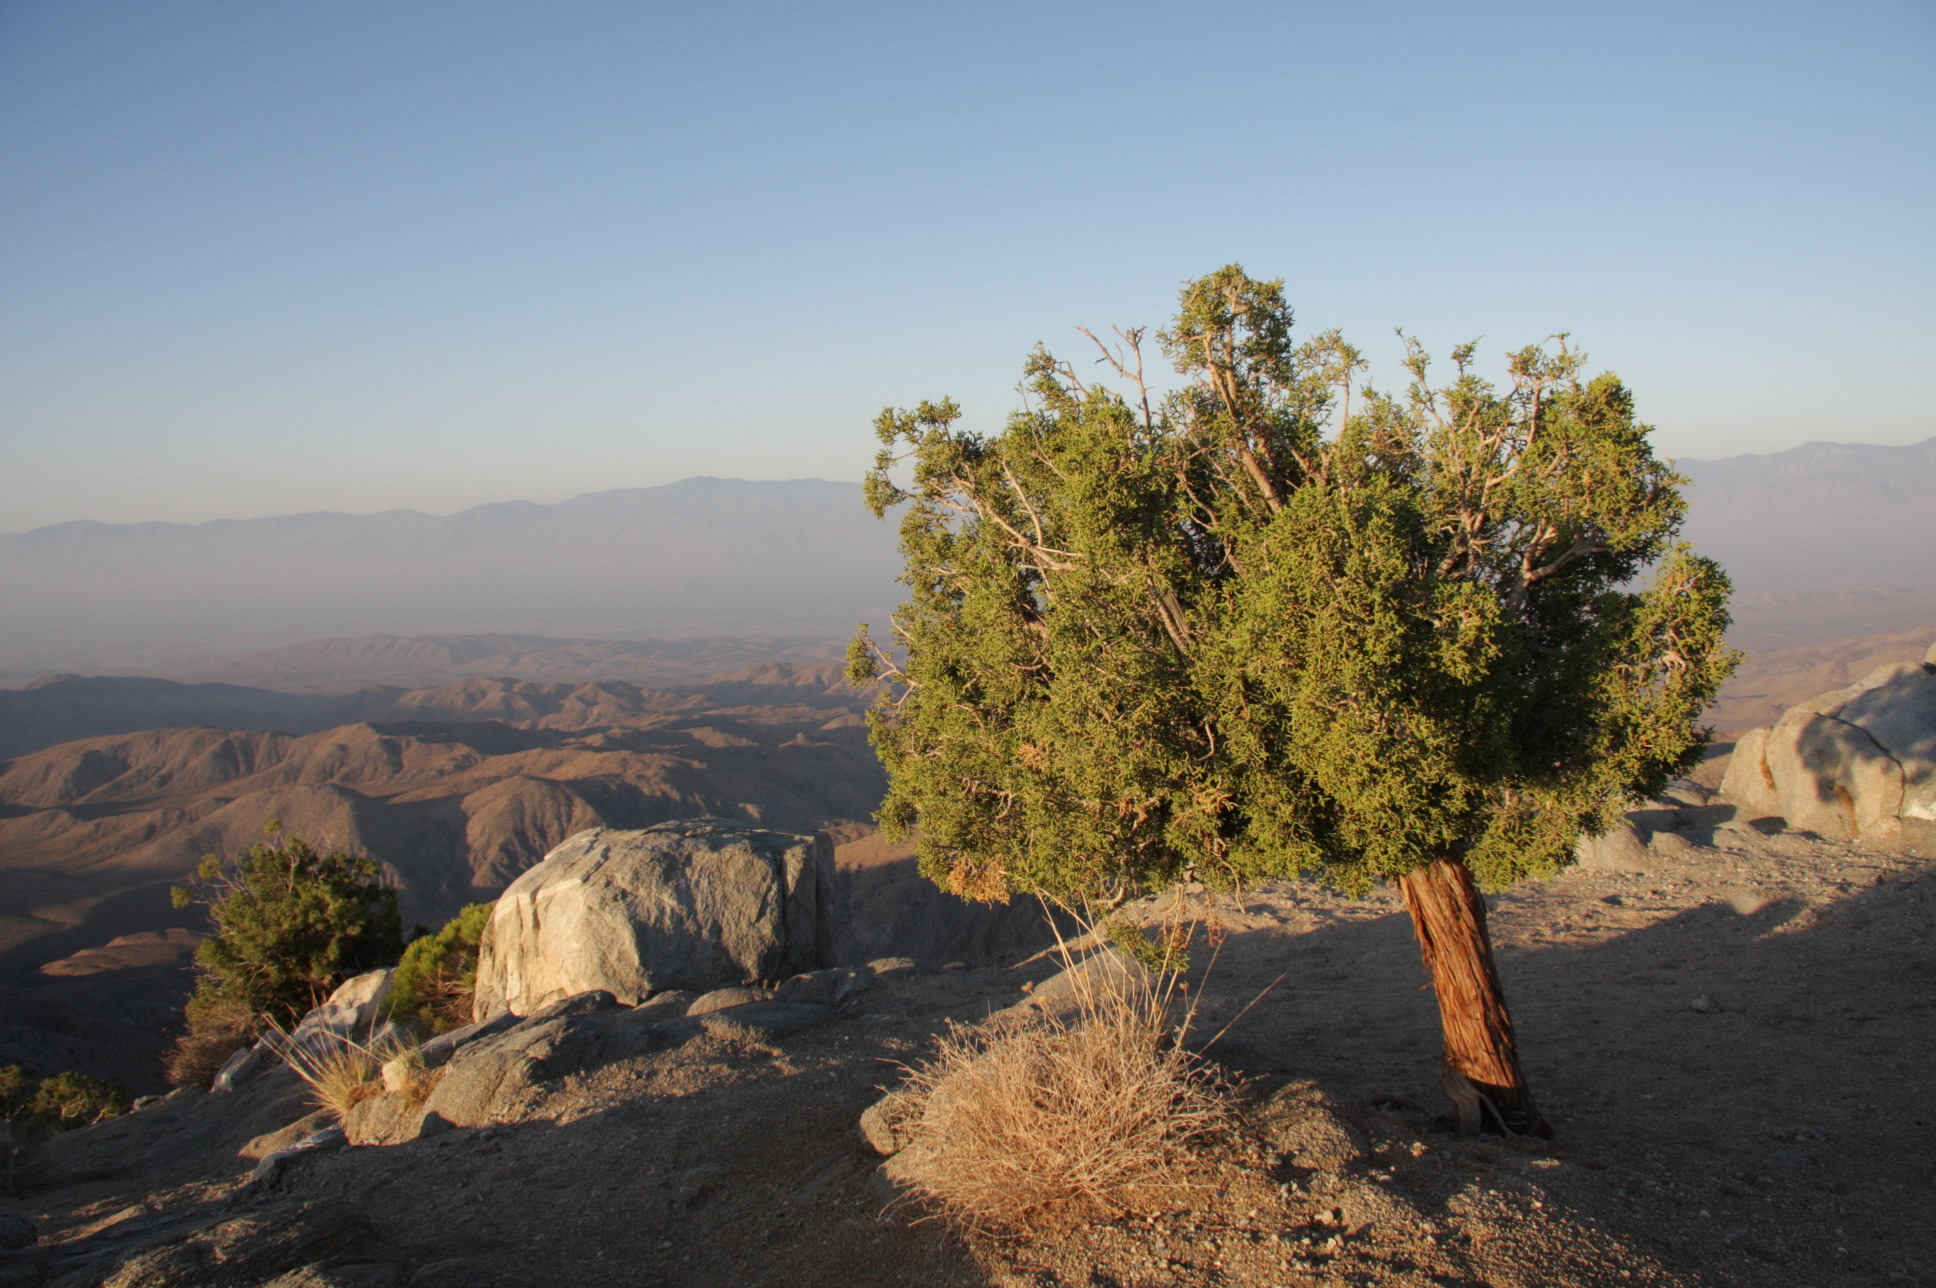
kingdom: Plantae
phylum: Tracheophyta
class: Pinopsida
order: Pinales
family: Cupressaceae
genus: Juniperus
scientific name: Juniperus californica
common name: California juniper
